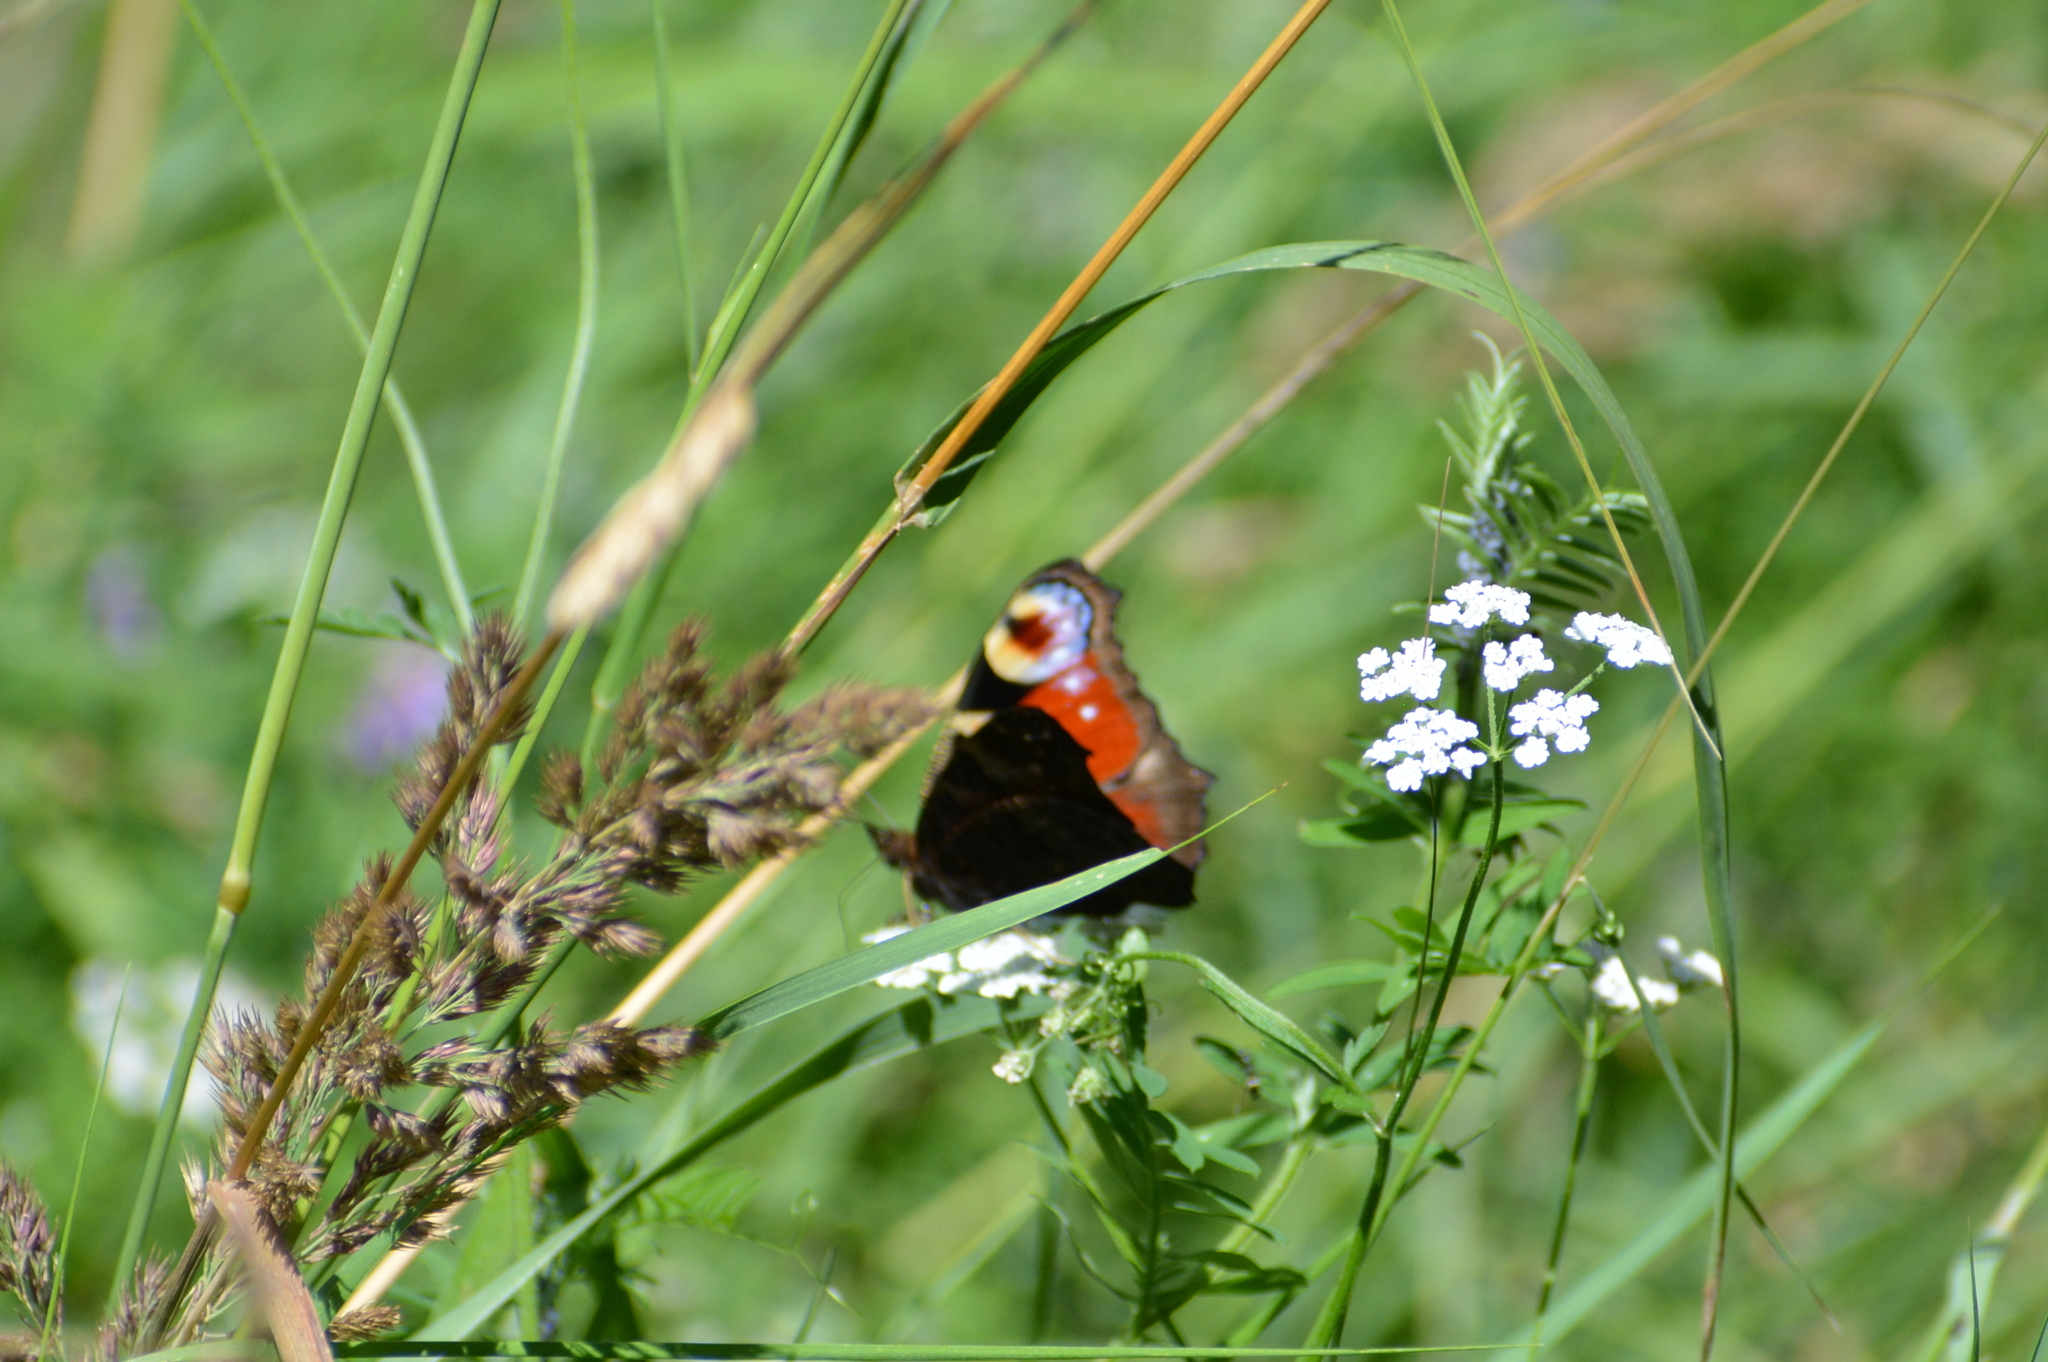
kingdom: Animalia
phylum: Arthropoda
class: Insecta
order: Lepidoptera
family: Nymphalidae
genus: Aglais
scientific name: Aglais io
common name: Peacock
